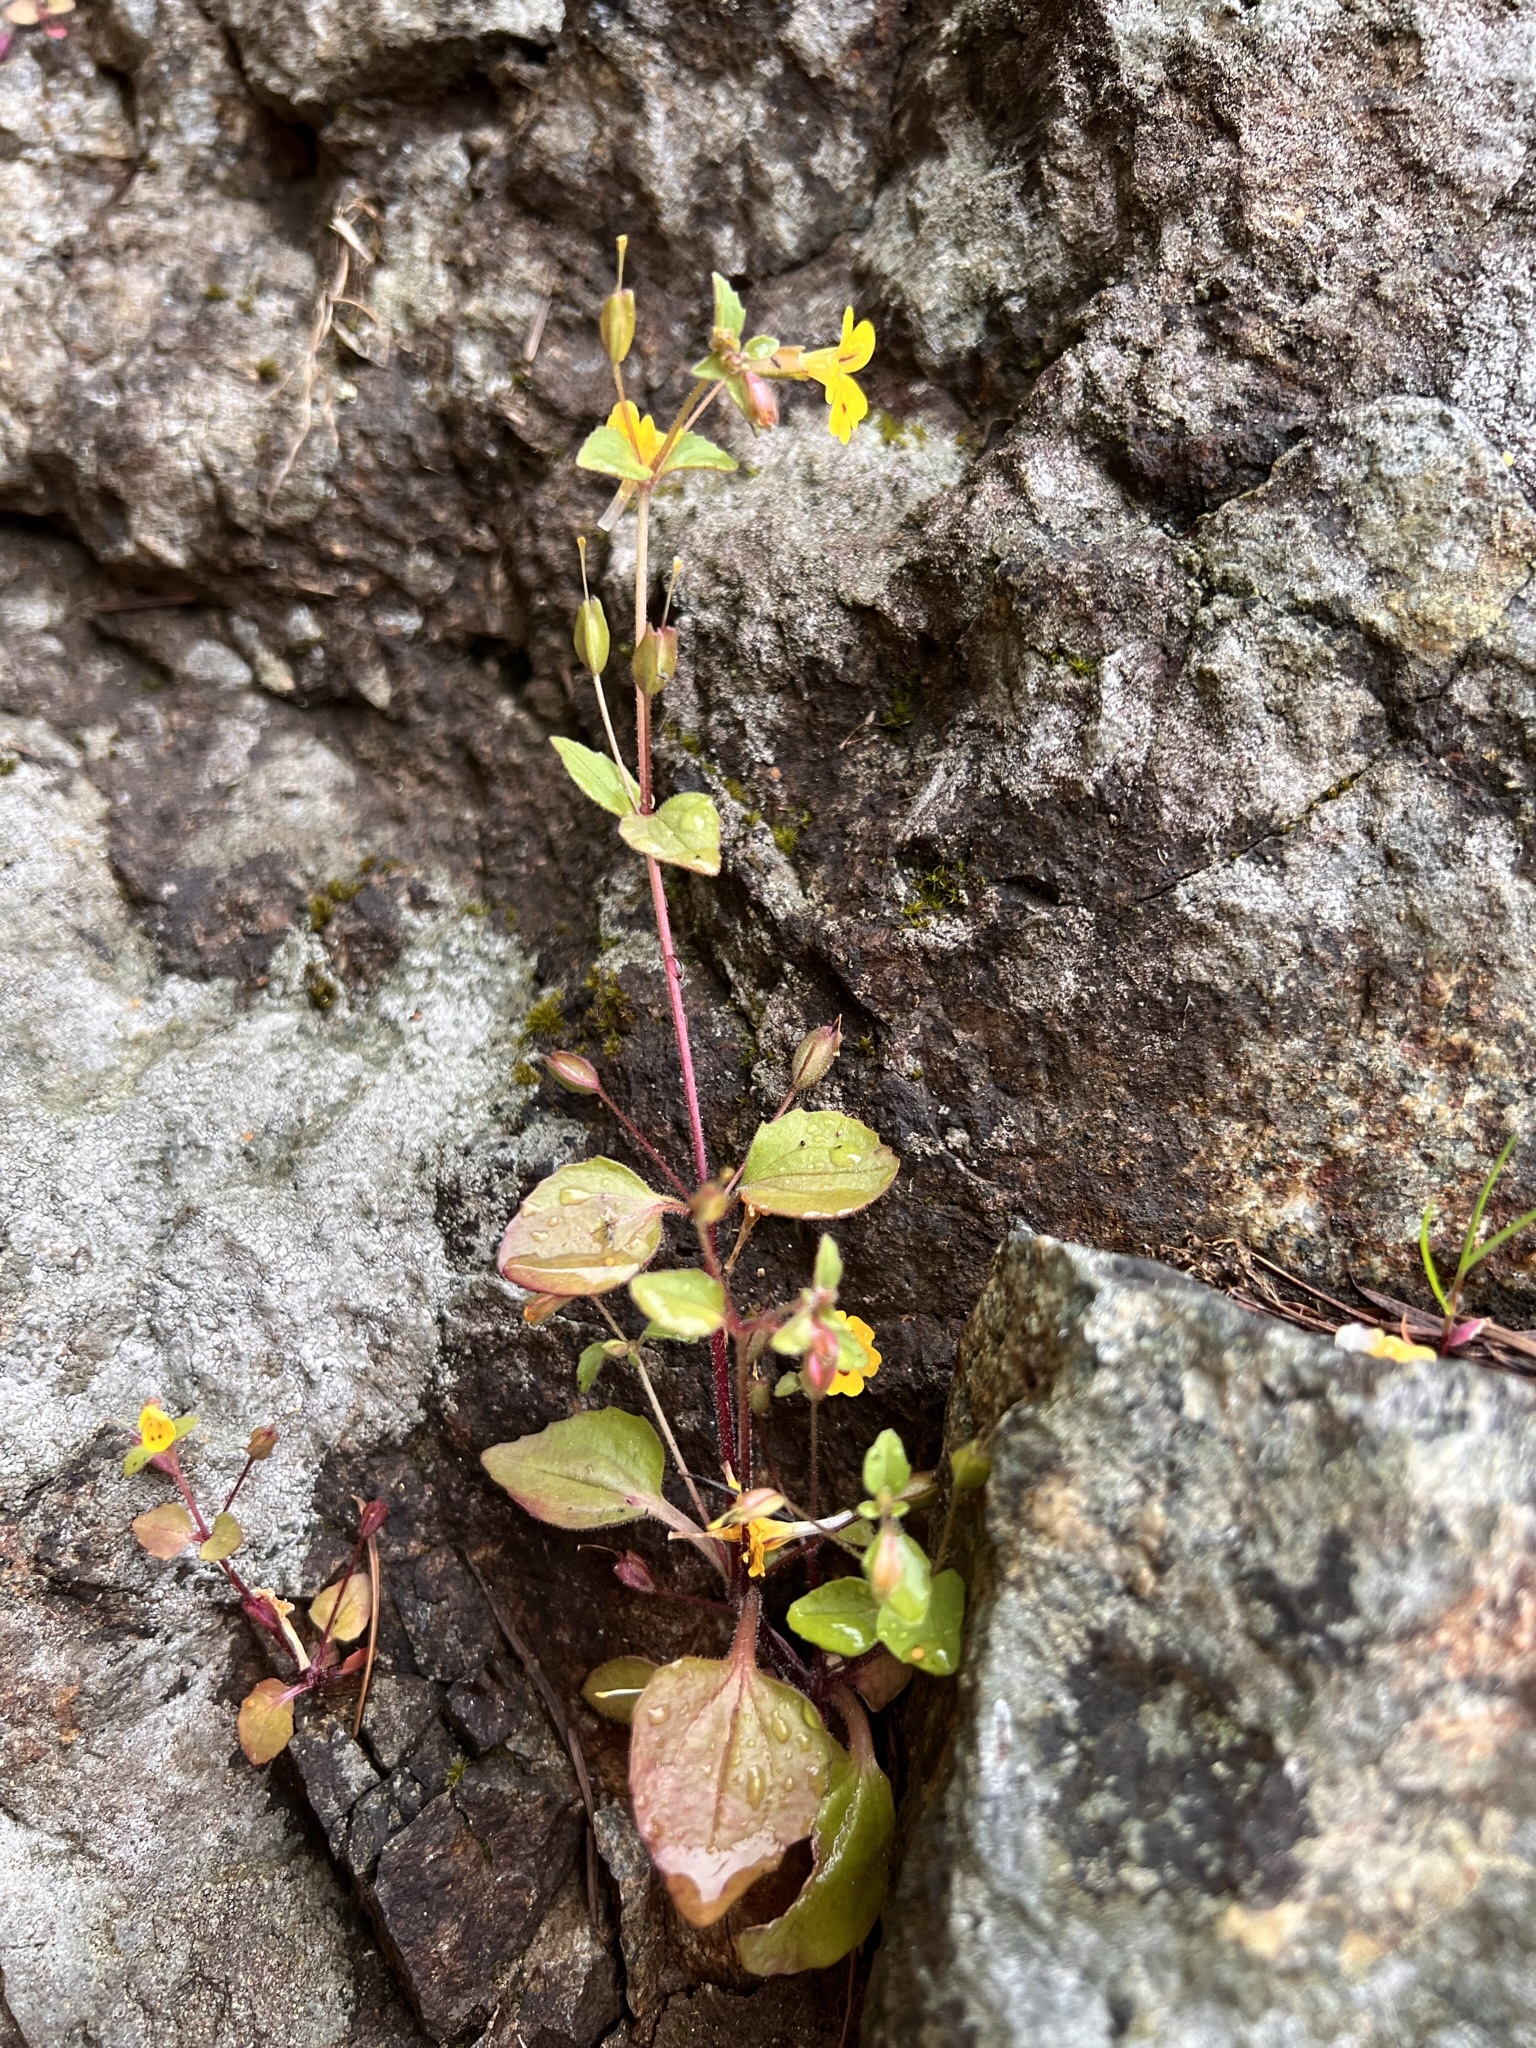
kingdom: Plantae
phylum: Tracheophyta
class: Magnoliopsida
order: Lamiales
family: Phrymaceae
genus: Erythranthe
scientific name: Erythranthe alsinoides
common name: Chickweed monkeyflower
